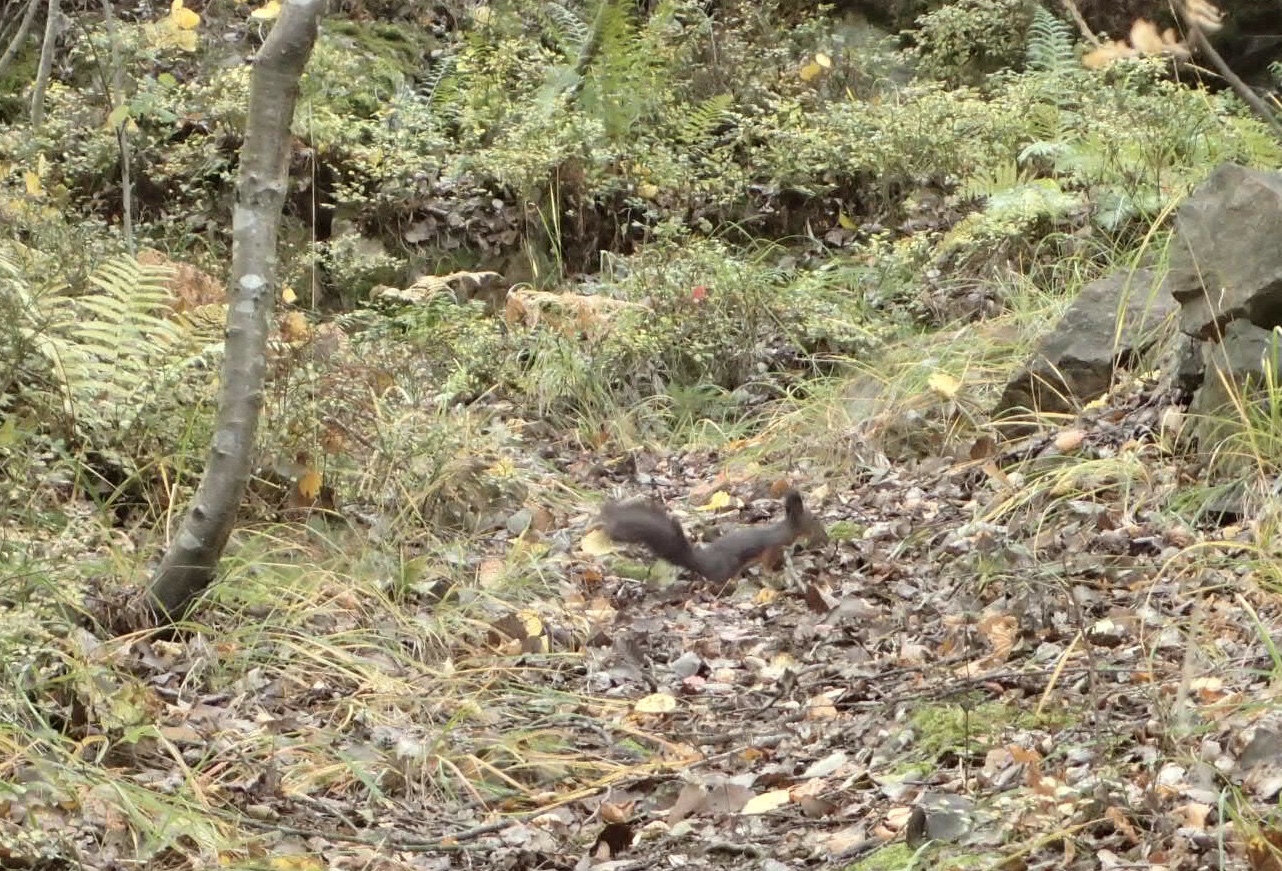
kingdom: Animalia
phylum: Chordata
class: Mammalia
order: Rodentia
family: Sciuridae
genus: Sciurus
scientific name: Sciurus vulgaris
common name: Eurasian red squirrel
